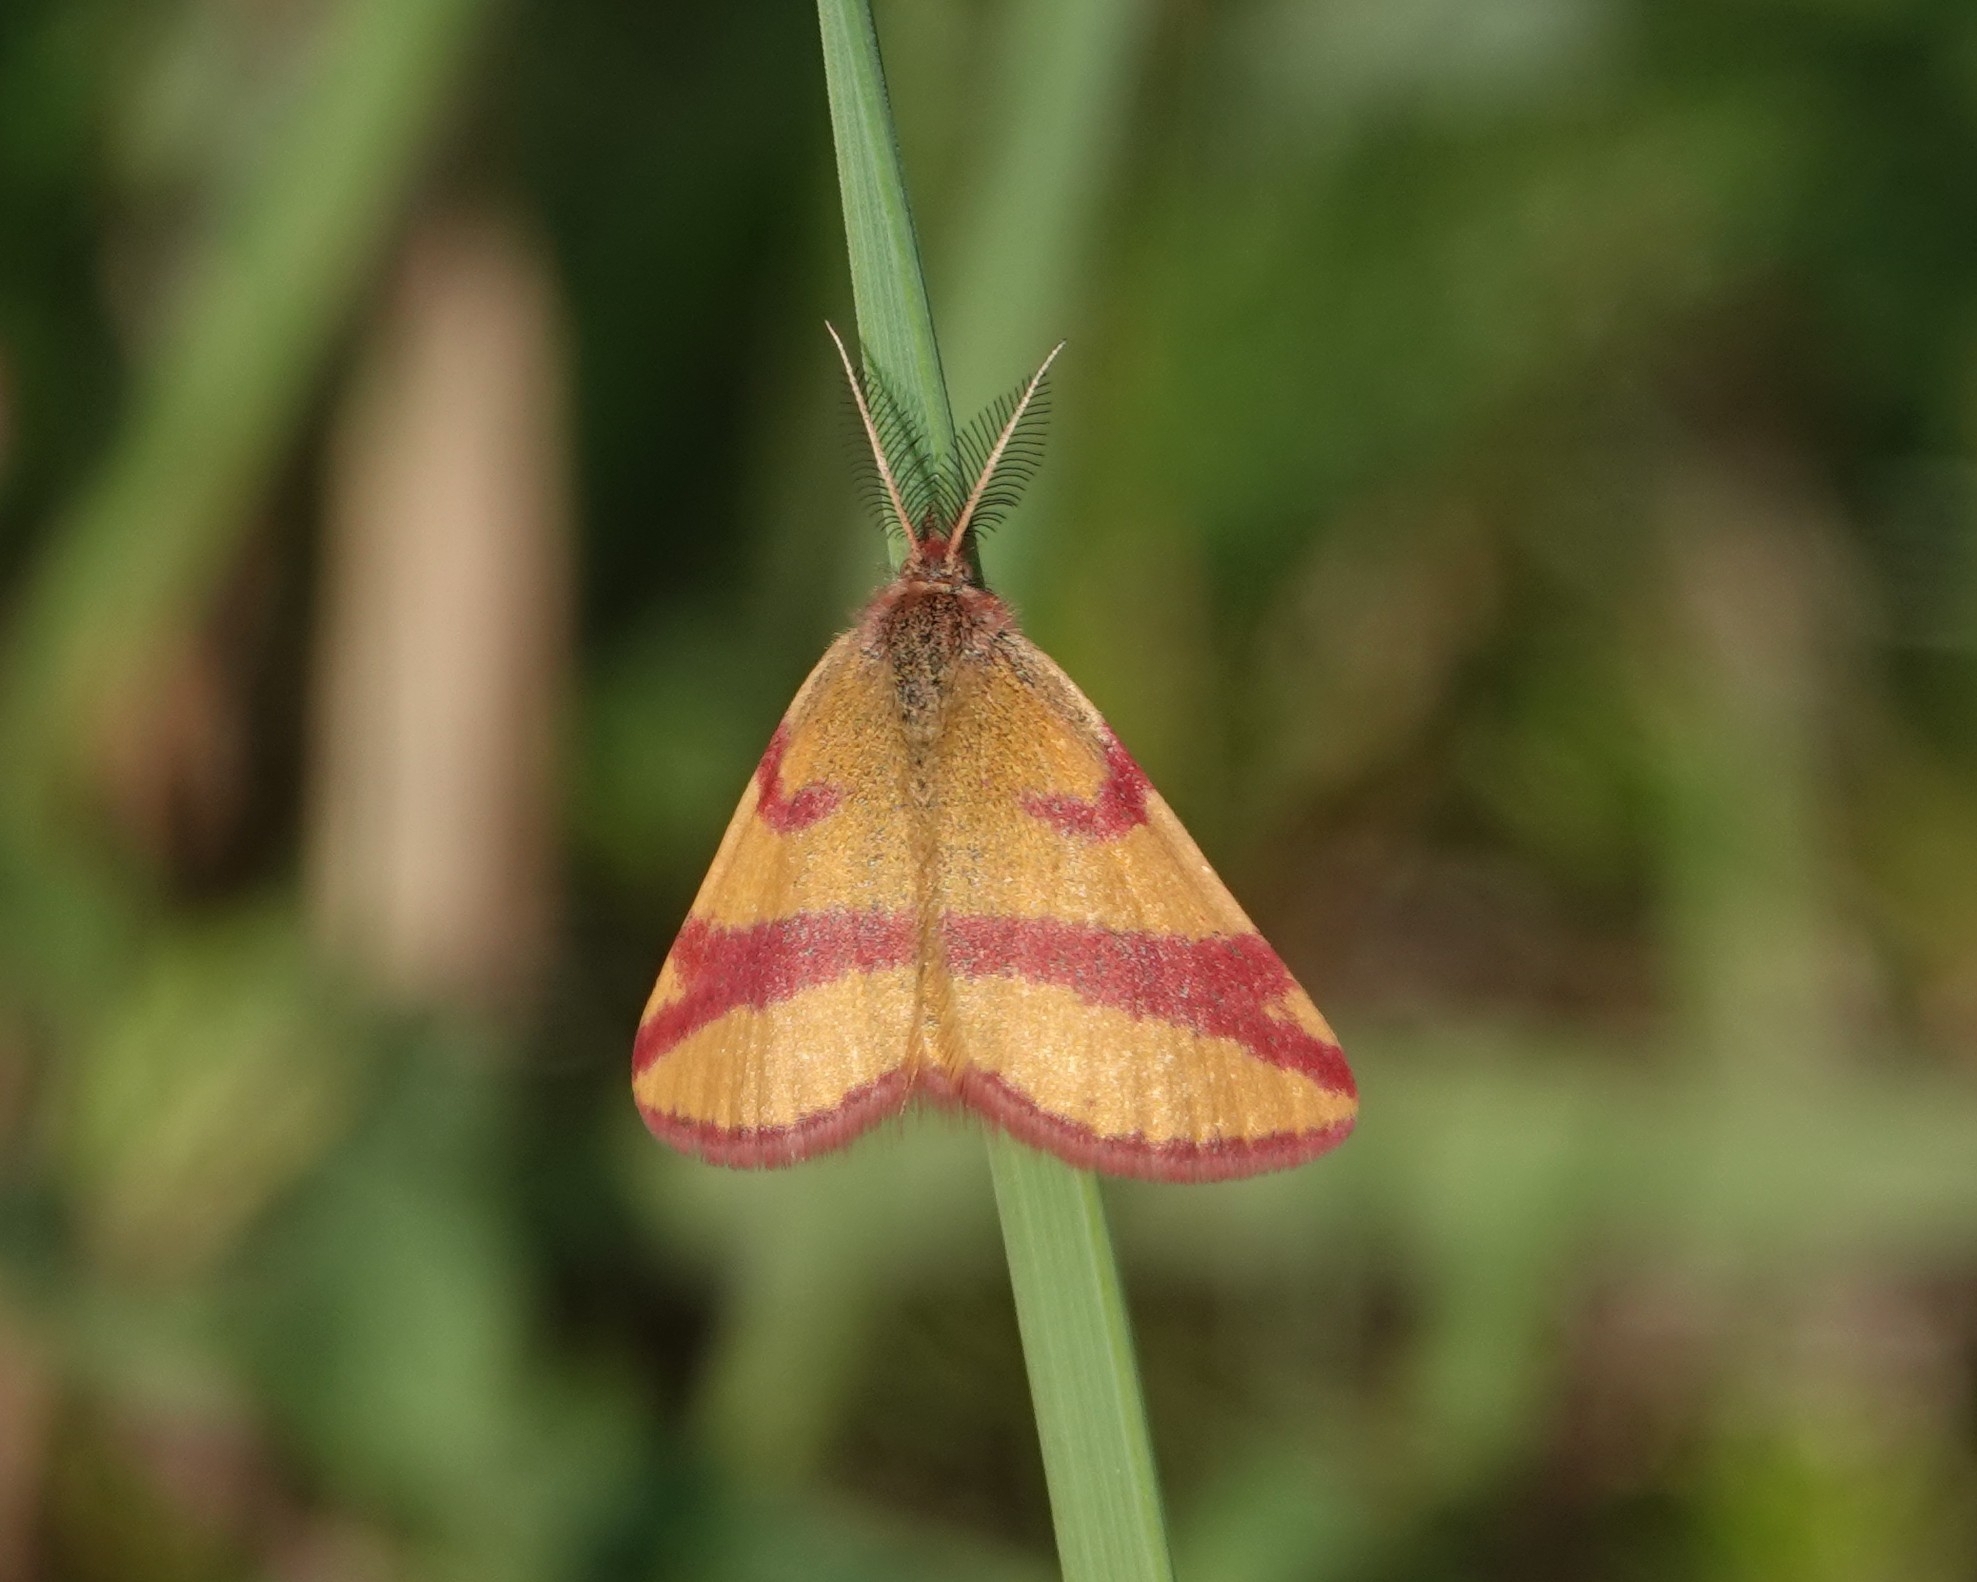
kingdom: Animalia
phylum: Arthropoda
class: Insecta
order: Lepidoptera
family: Geometridae
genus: Lythria
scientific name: Lythria cruentaria
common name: Purple-barred yellow
